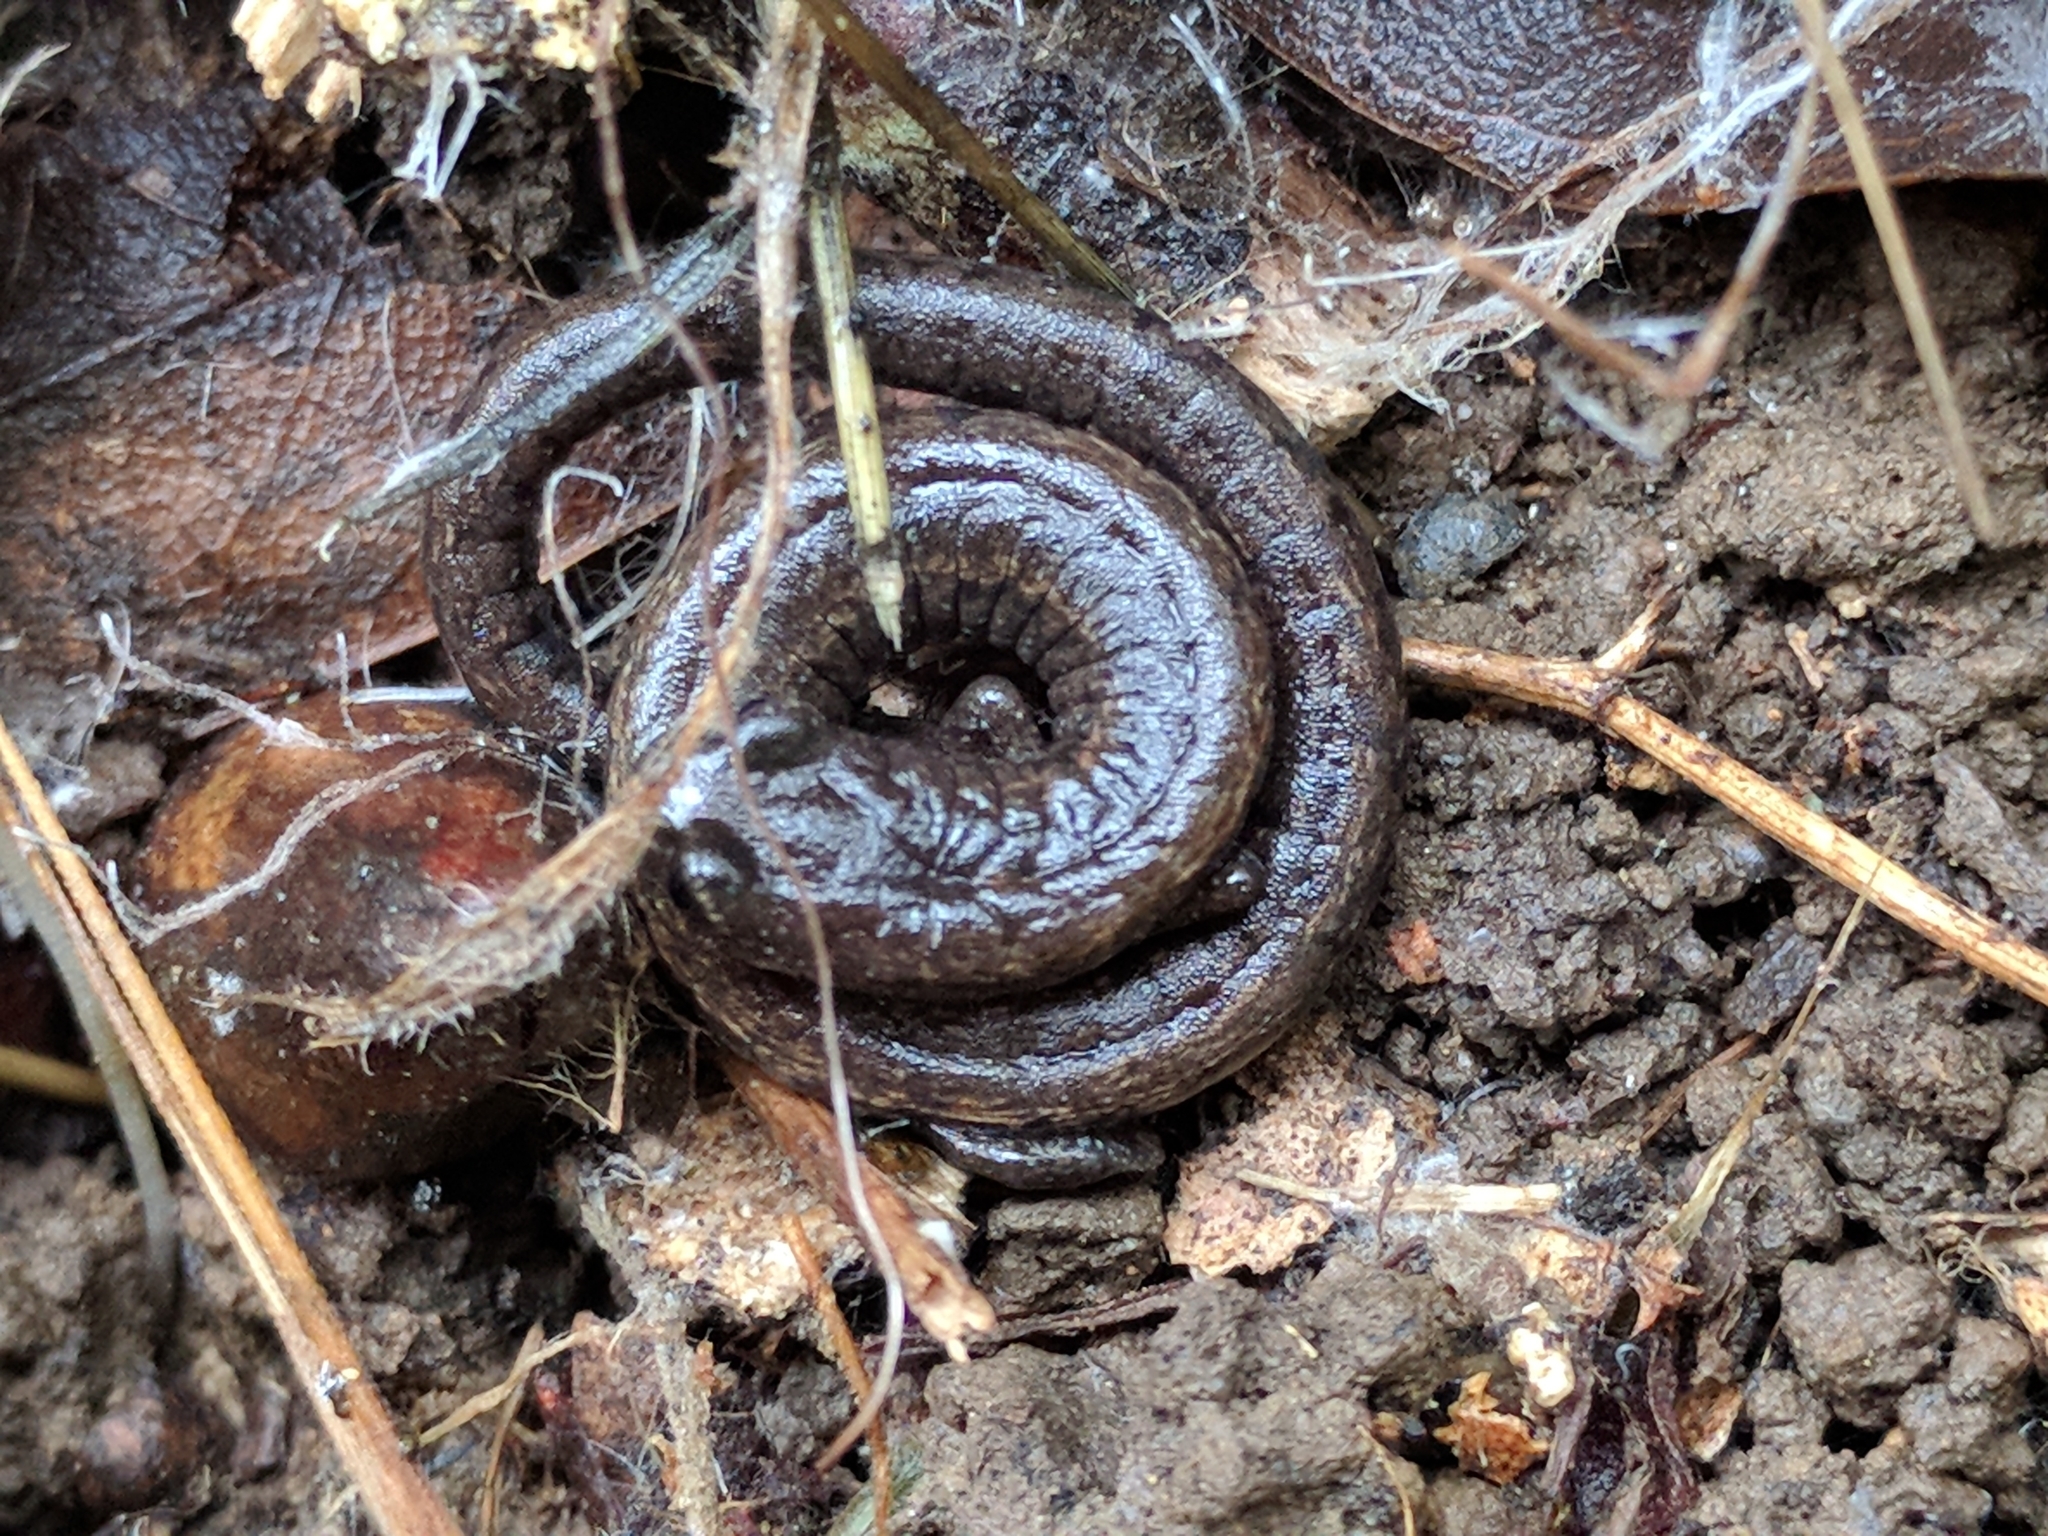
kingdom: Animalia
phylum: Chordata
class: Amphibia
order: Caudata
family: Plethodontidae
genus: Batrachoseps
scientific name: Batrachoseps attenuatus
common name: California slender salamander
